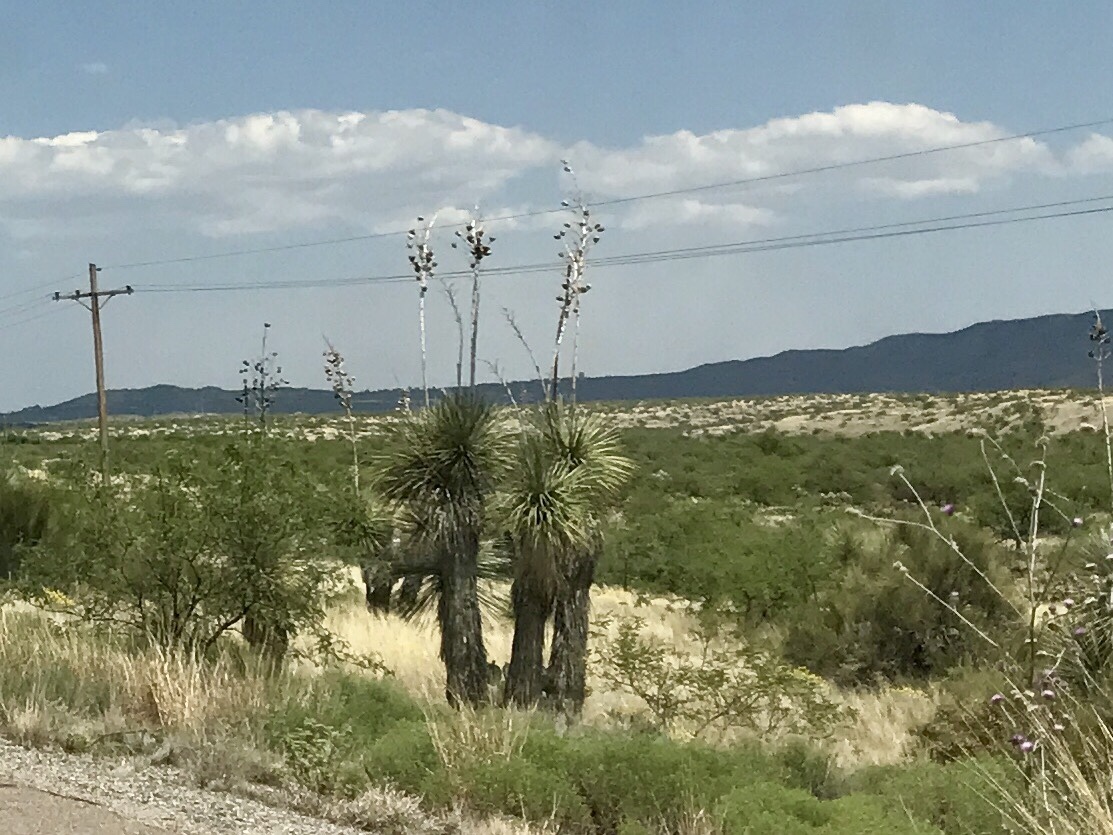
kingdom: Plantae
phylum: Tracheophyta
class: Liliopsida
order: Asparagales
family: Asparagaceae
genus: Yucca
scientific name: Yucca elata
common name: Palmella
